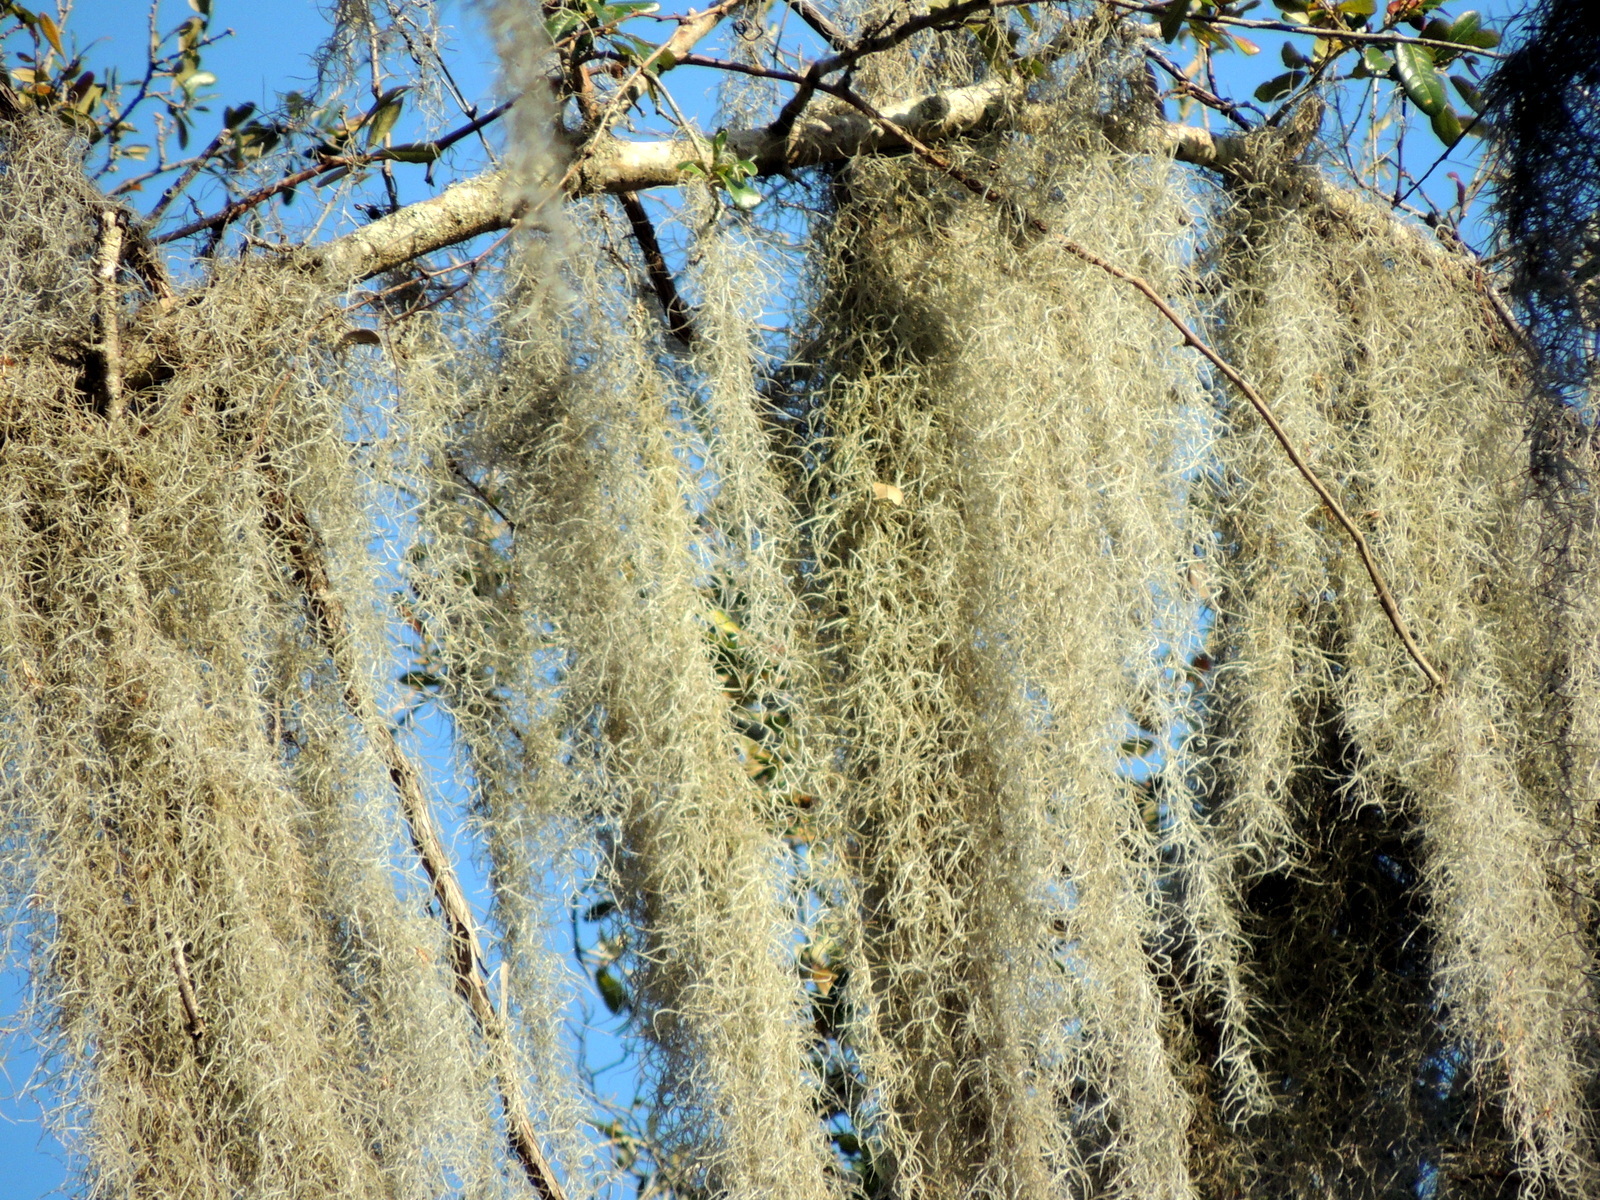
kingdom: Plantae
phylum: Tracheophyta
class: Liliopsida
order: Poales
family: Bromeliaceae
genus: Tillandsia
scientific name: Tillandsia usneoides
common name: Spanish moss
